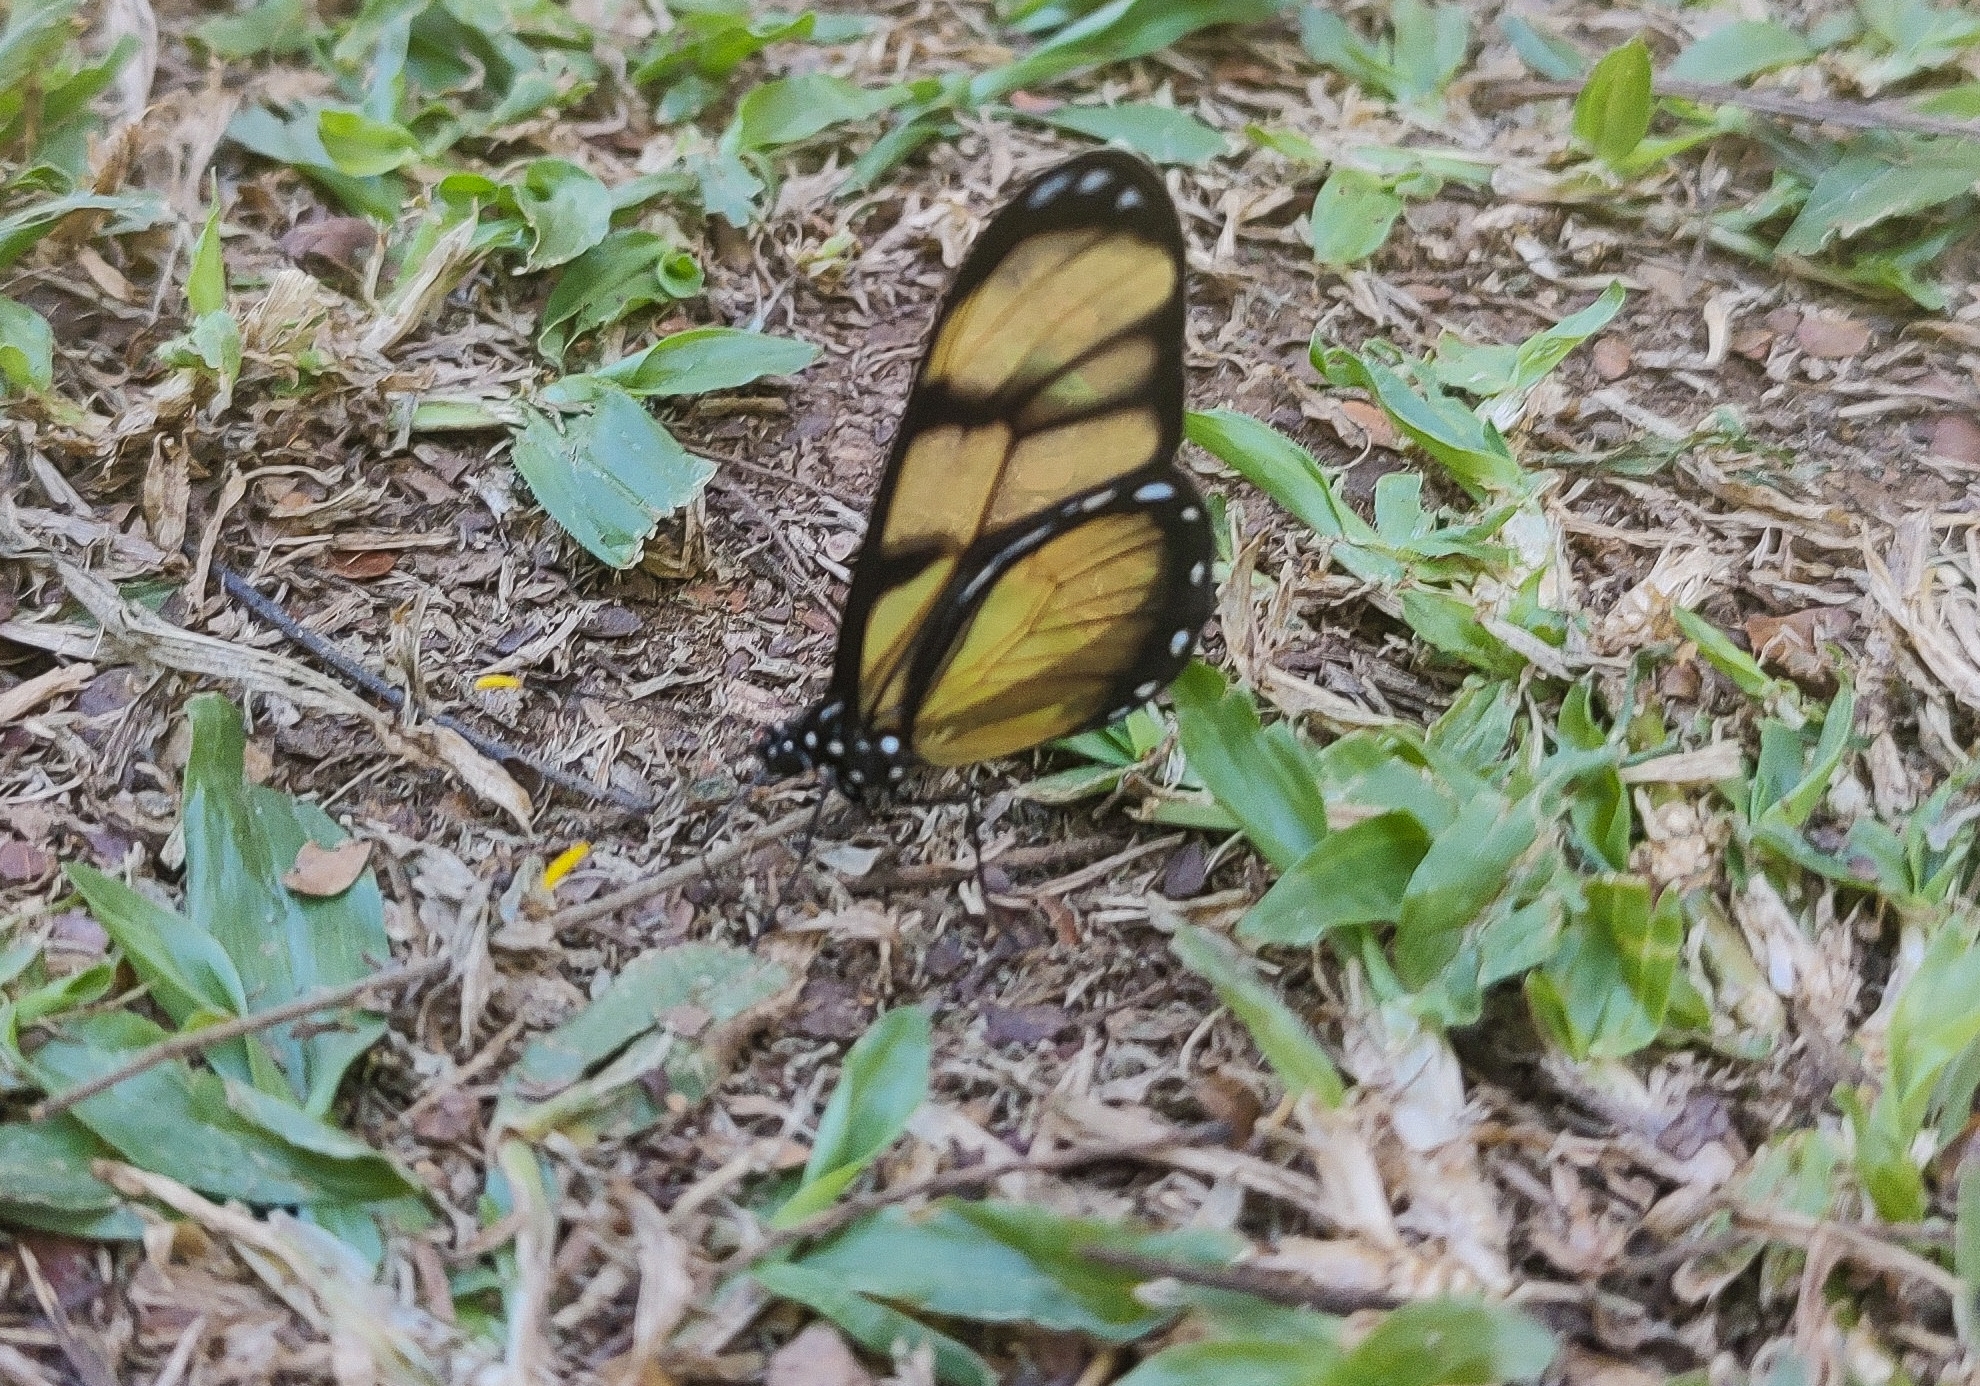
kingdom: Animalia
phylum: Arthropoda
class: Insecta
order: Lepidoptera
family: Nymphalidae
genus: Dircenna
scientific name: Dircenna dero
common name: Dero clearwing
